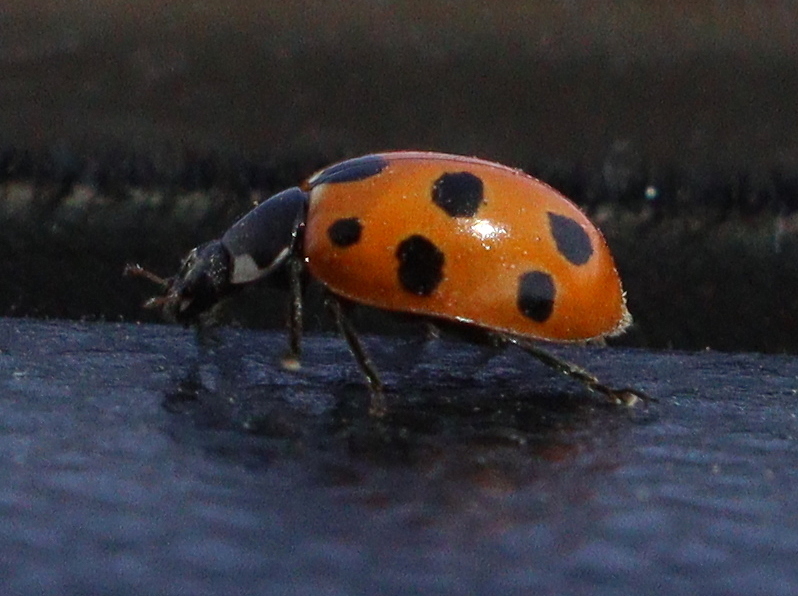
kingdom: Animalia
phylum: Arthropoda
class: Insecta
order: Coleoptera
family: Coccinellidae
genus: Coccinella
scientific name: Coccinella undecimpunctata
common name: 11-spot ladybird
